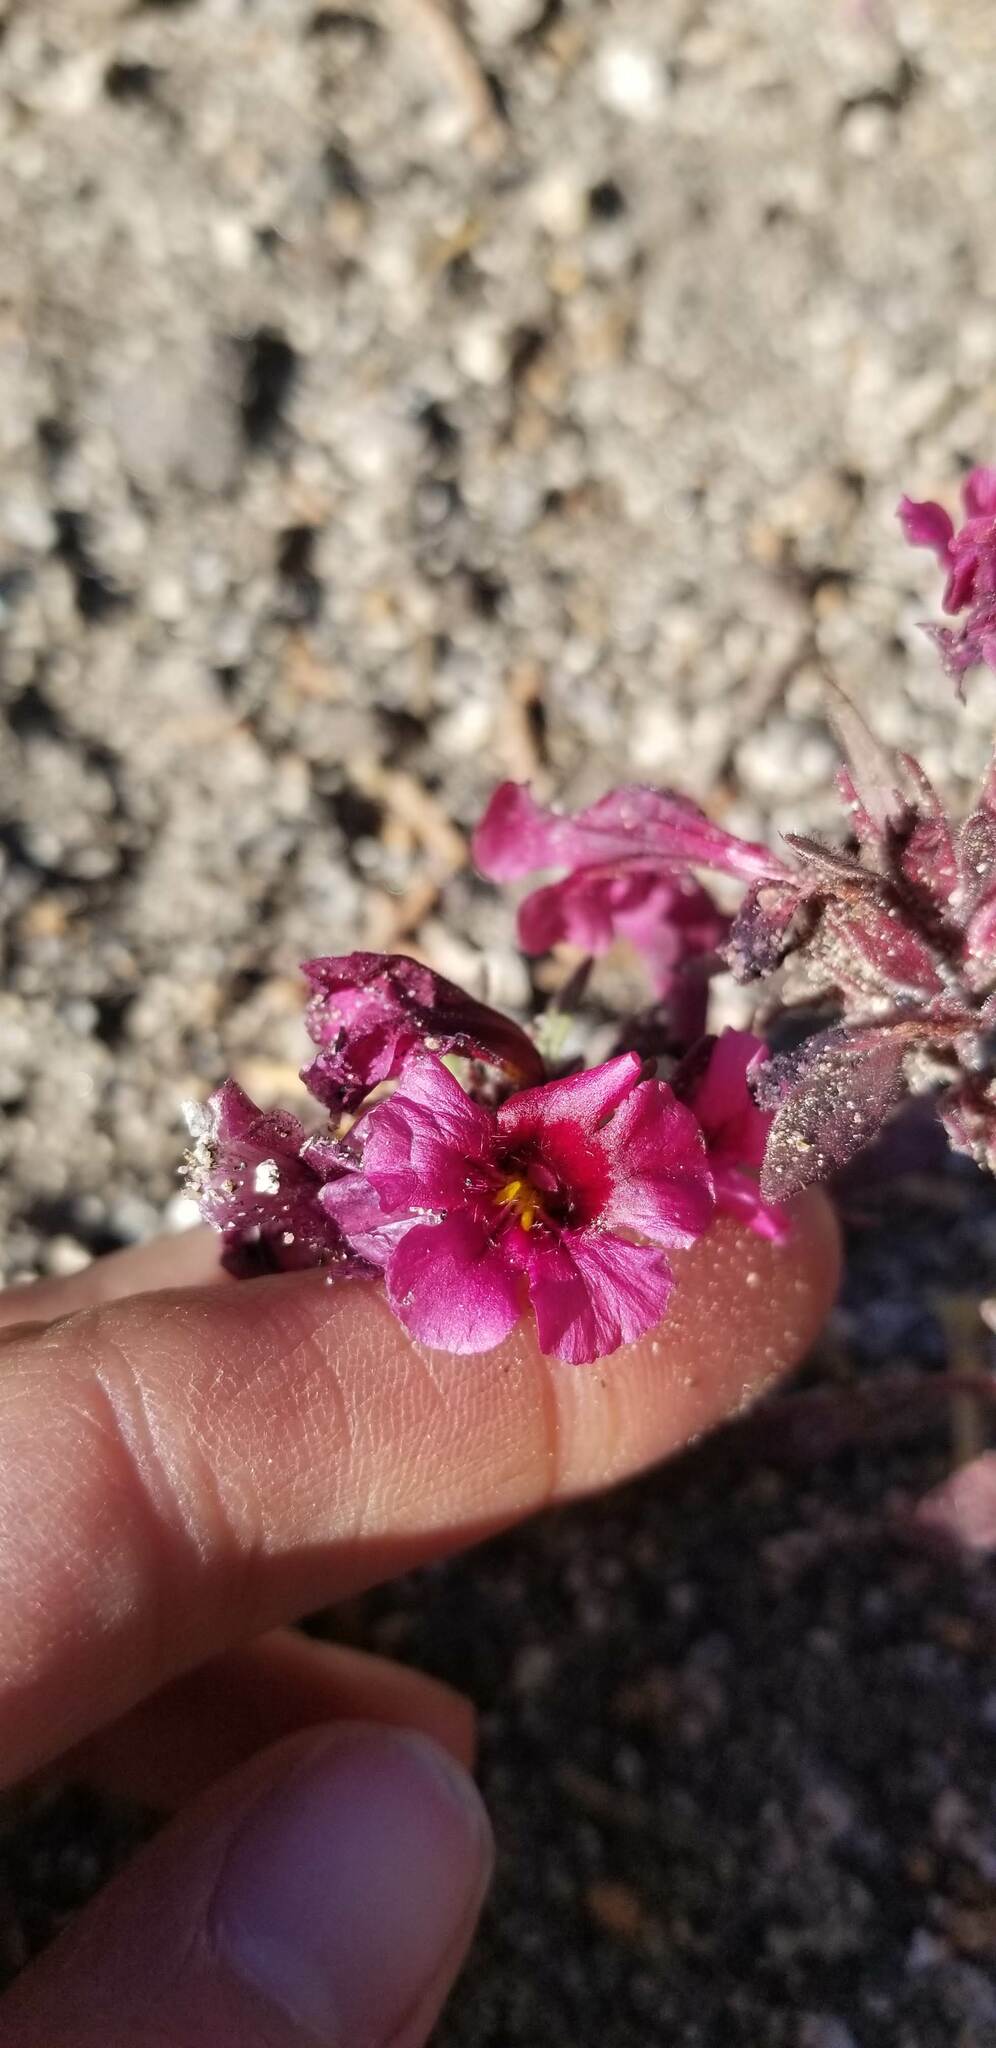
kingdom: Plantae
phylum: Tracheophyta
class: Magnoliopsida
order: Lamiales
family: Phrymaceae
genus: Diplacus
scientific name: Diplacus bicolor
